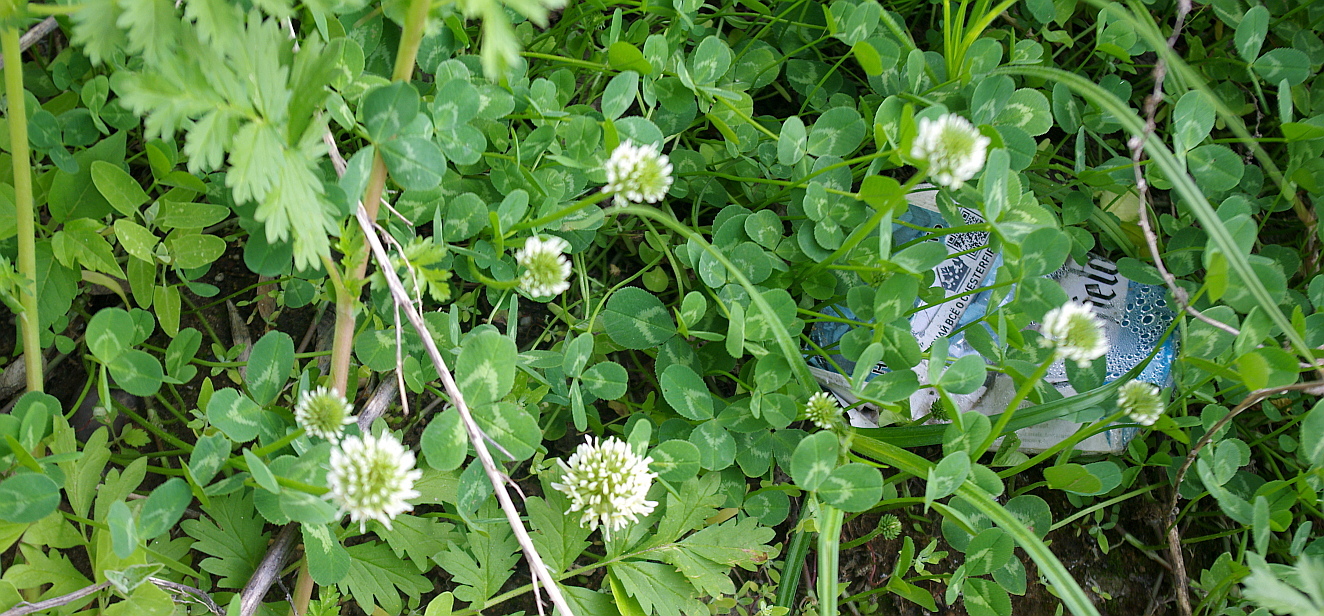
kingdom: Plantae
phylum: Tracheophyta
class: Magnoliopsida
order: Fabales
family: Fabaceae
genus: Trifolium
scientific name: Trifolium repens
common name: White clover
